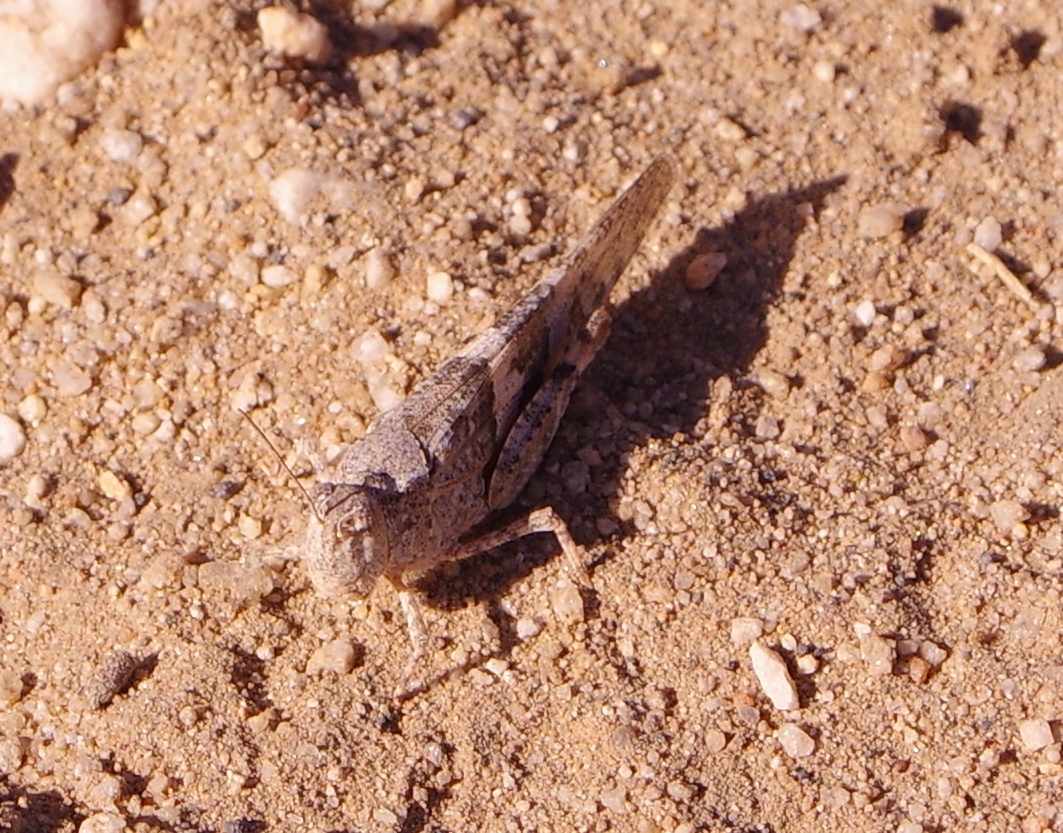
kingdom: Animalia
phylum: Arthropoda
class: Insecta
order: Orthoptera
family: Acrididae
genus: Trimerotropis
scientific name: Trimerotropis pallidipennis
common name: Pallid-winged grasshopper
